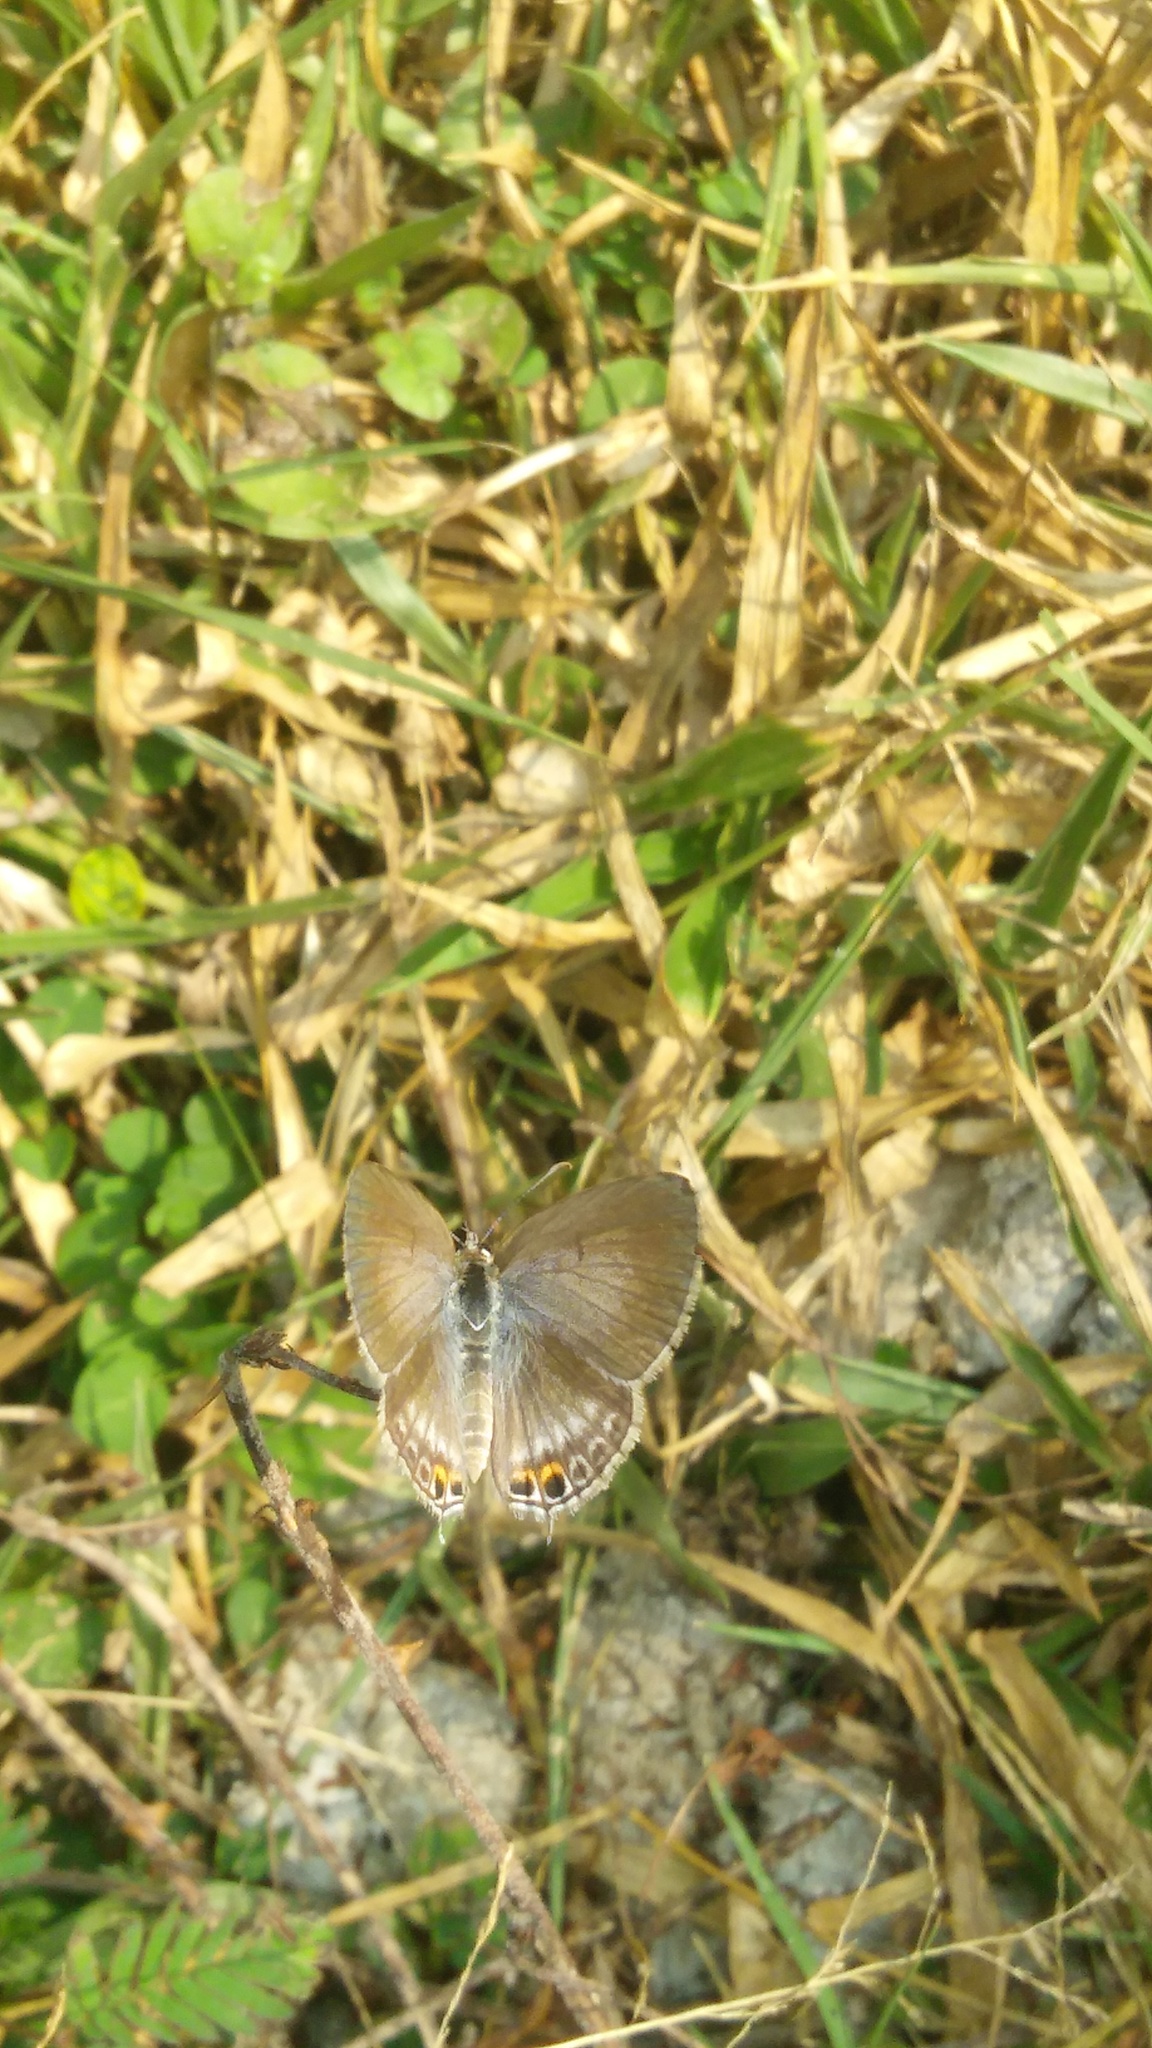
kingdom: Animalia
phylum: Arthropoda
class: Insecta
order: Lepidoptera
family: Lycaenidae
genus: Euchrysops
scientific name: Euchrysops cnejus
